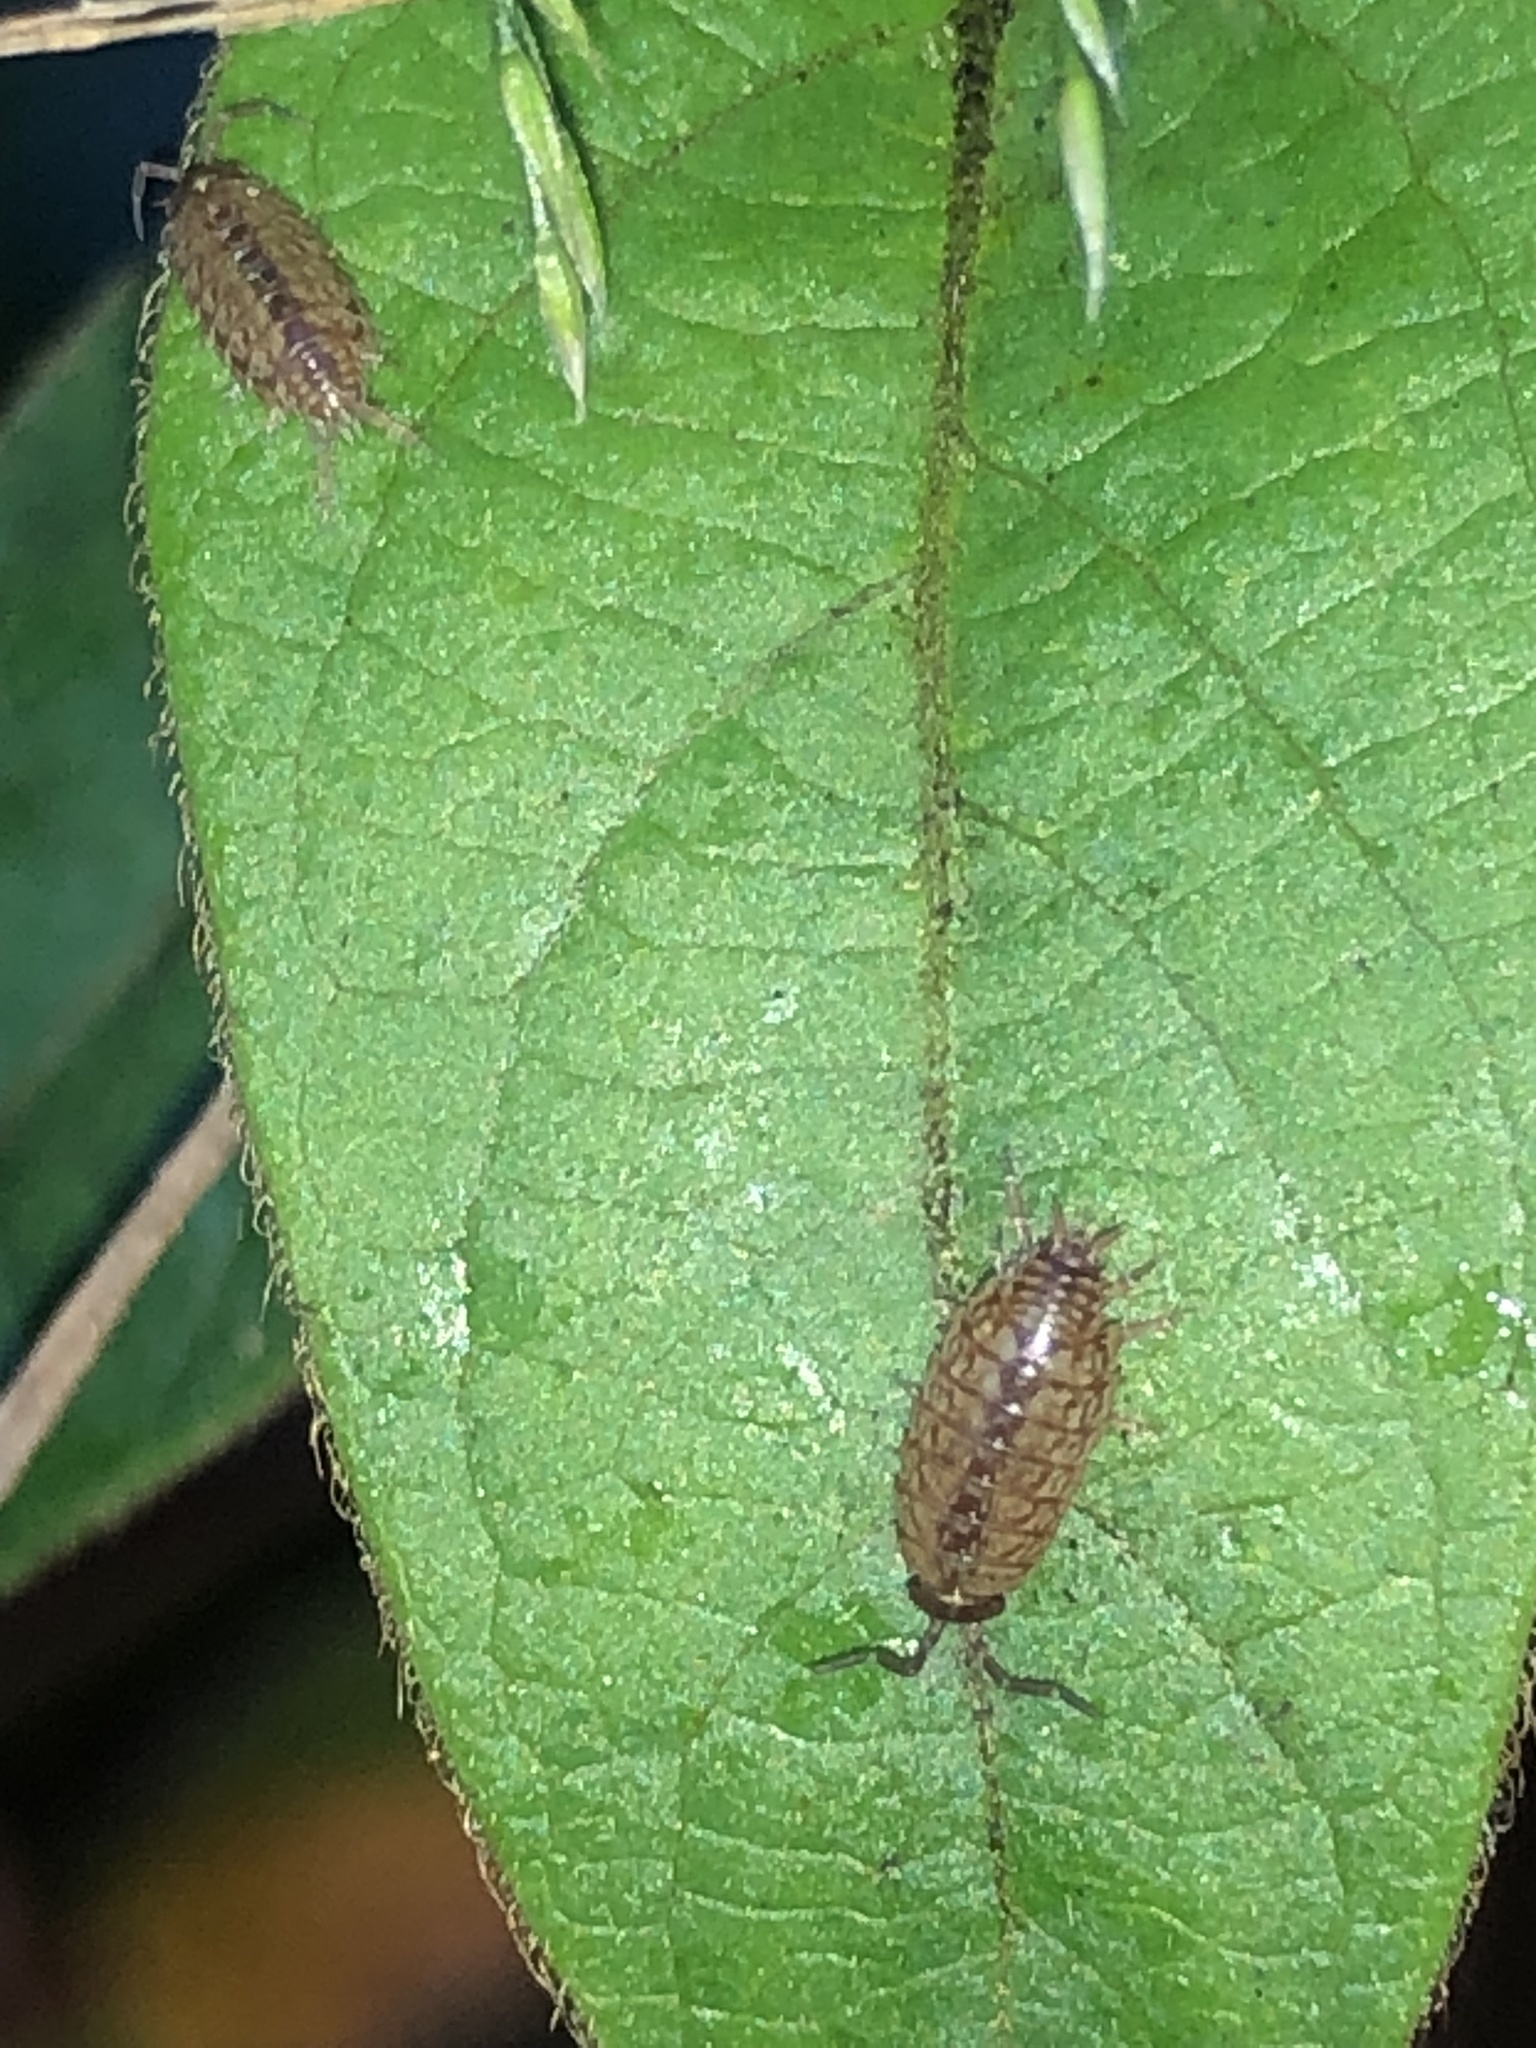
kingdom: Animalia
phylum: Arthropoda
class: Malacostraca
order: Isopoda
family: Philosciidae
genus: Philoscia
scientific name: Philoscia muscorum
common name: Common striped woodlouse
